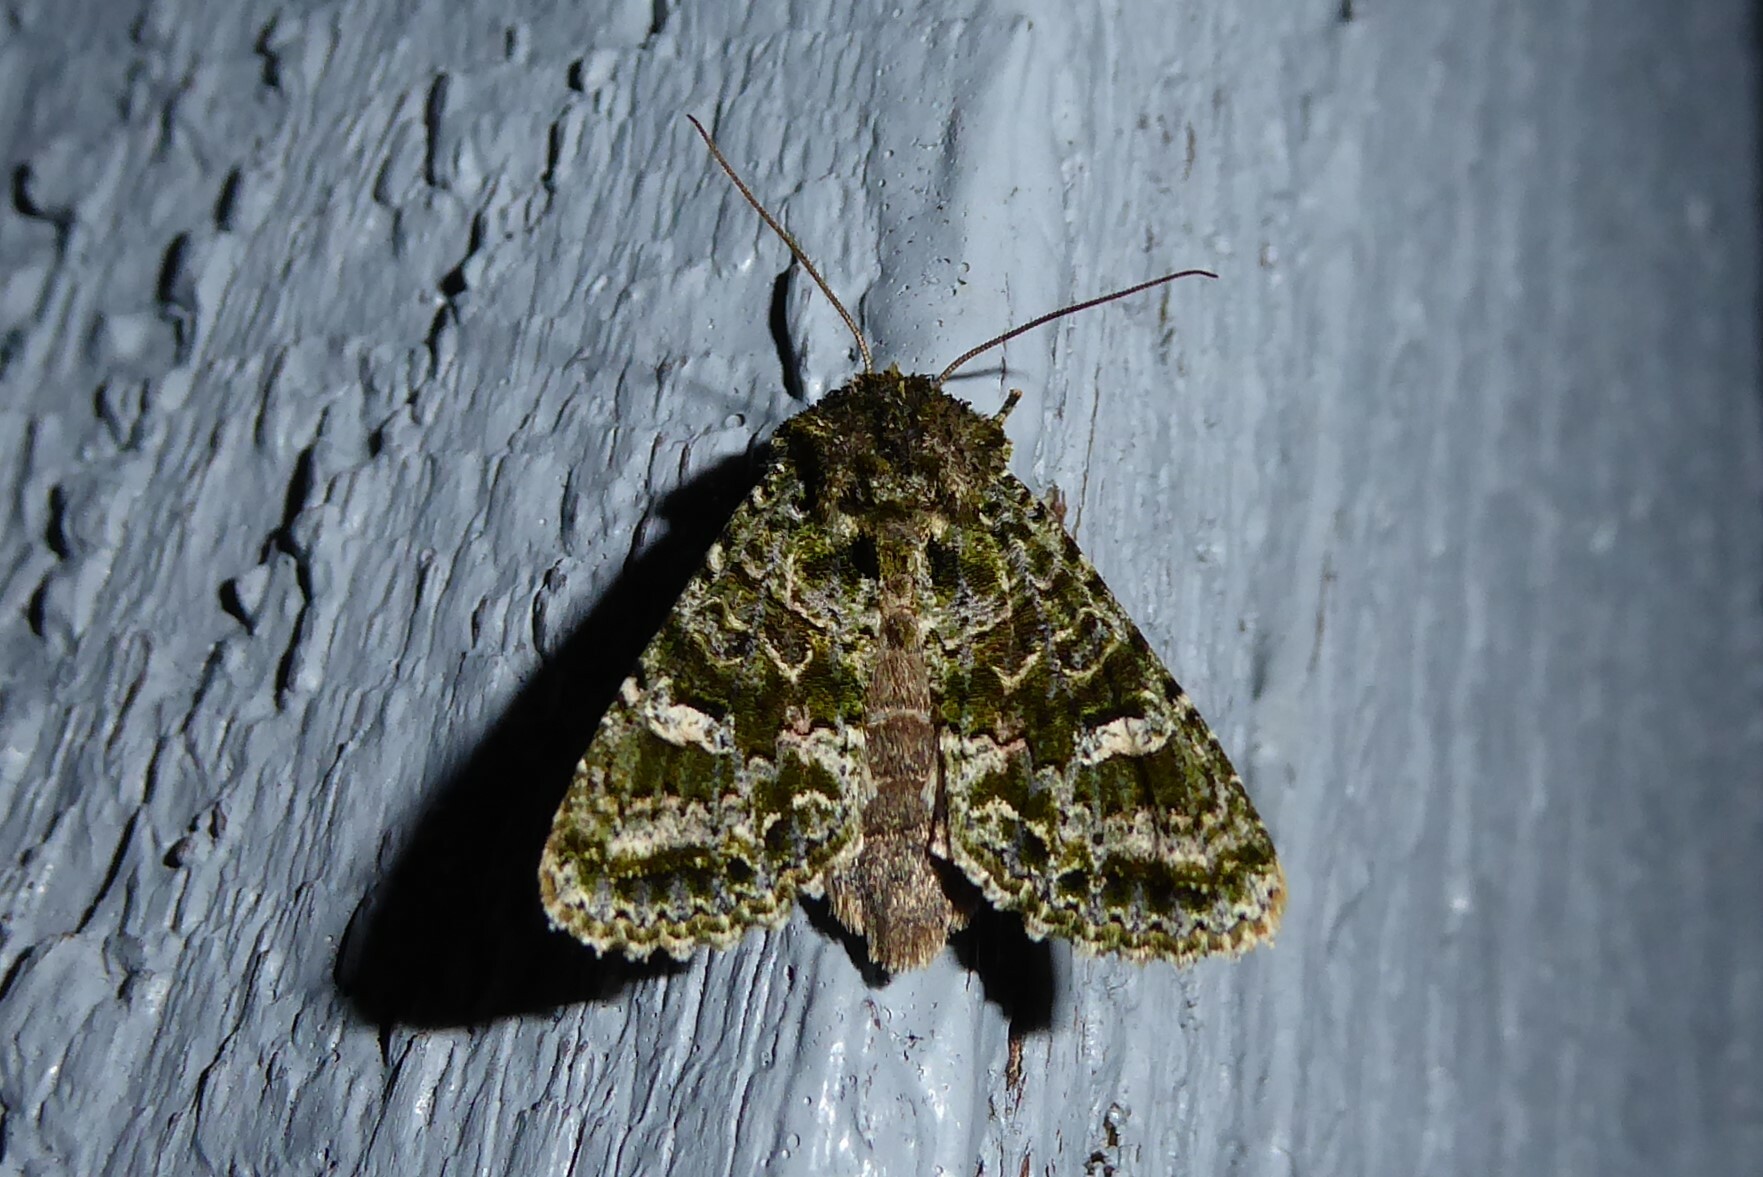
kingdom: Animalia
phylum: Arthropoda
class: Insecta
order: Lepidoptera
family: Noctuidae
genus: Ichneutica
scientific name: Ichneutica
